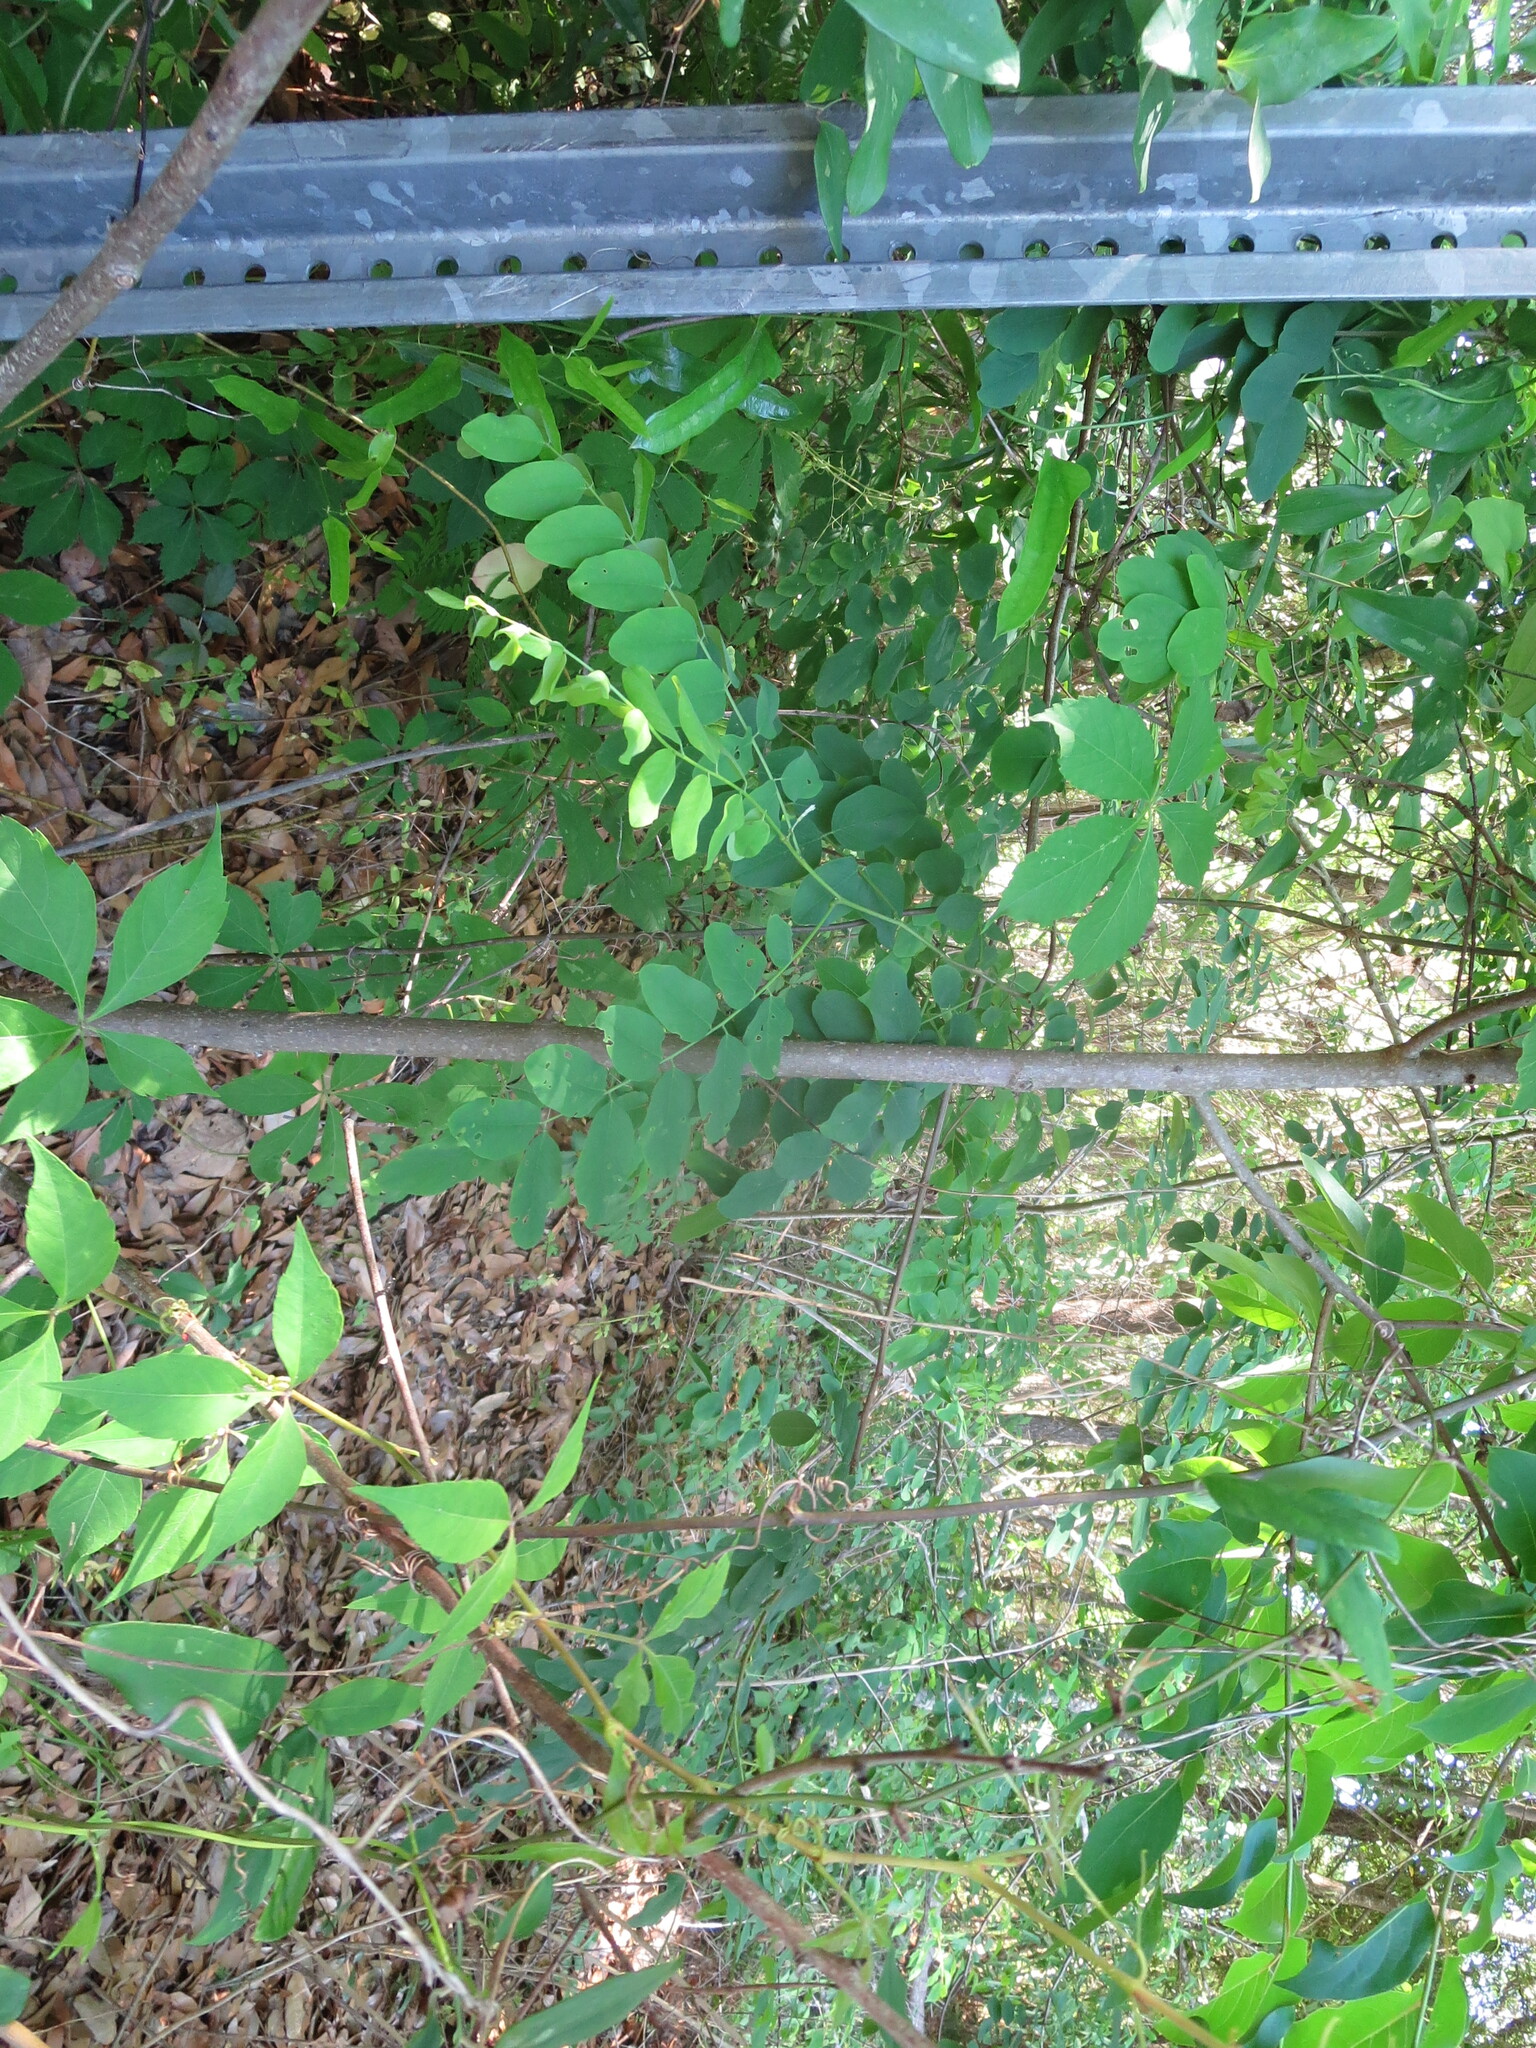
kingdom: Plantae
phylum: Tracheophyta
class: Magnoliopsida
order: Ericales
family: Ebenaceae
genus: Diospyros
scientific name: Diospyros virginiana
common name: Persimmon
